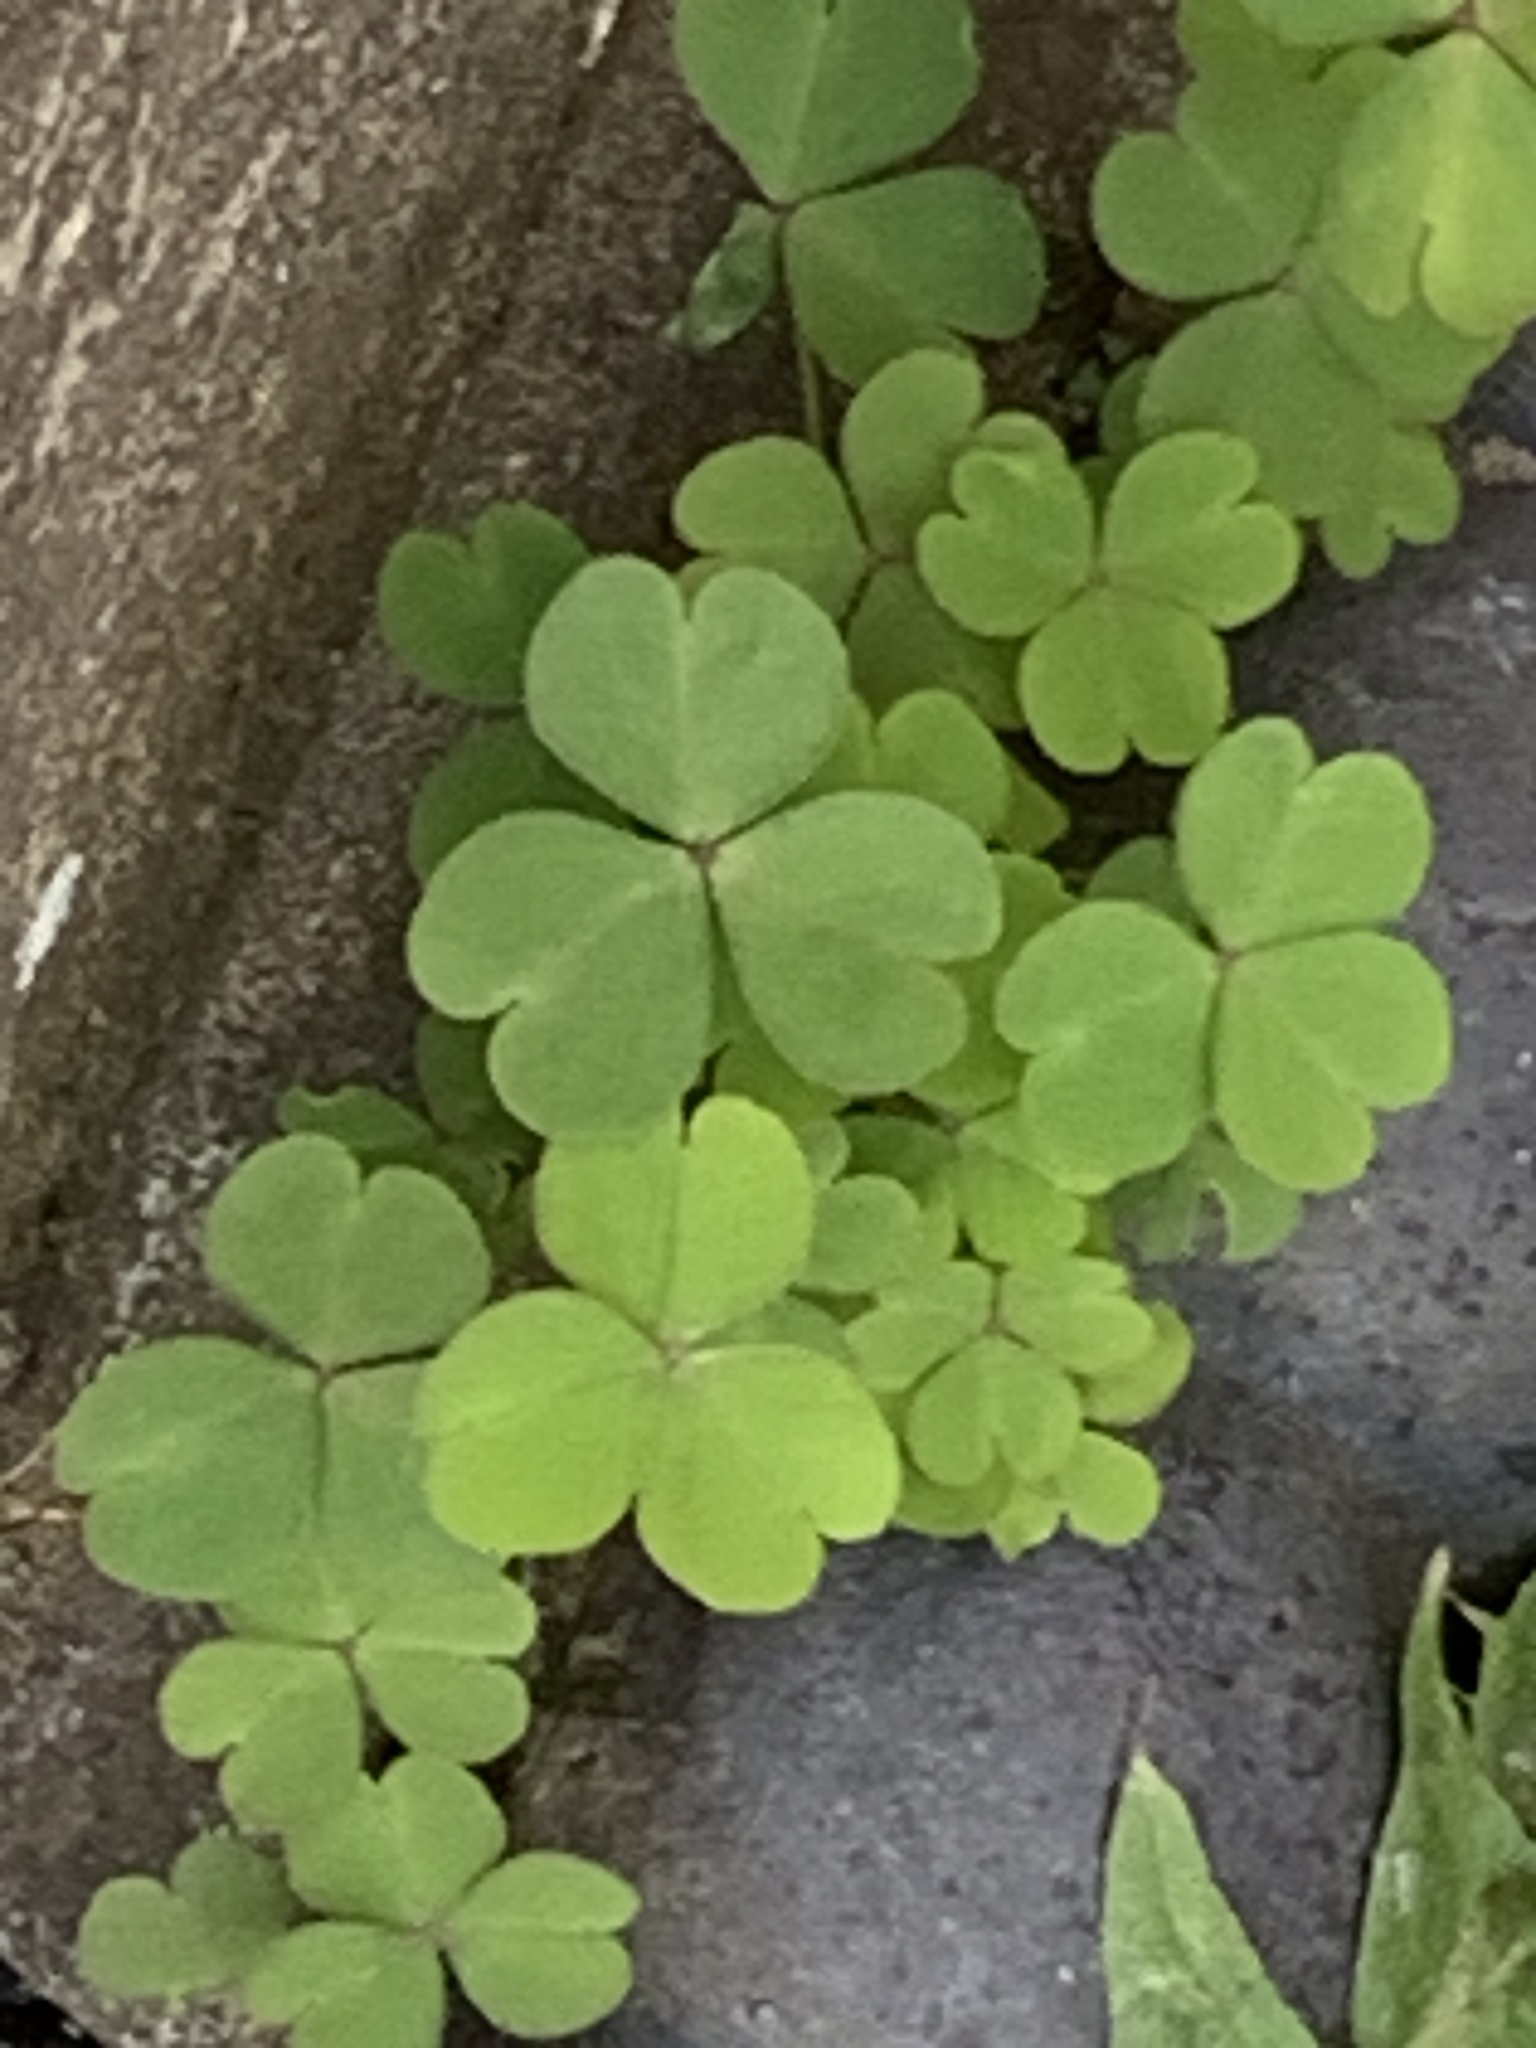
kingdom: Plantae
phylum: Tracheophyta
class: Magnoliopsida
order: Oxalidales
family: Oxalidaceae
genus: Oxalis
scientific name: Oxalis corniculata
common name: Procumbent yellow-sorrel
